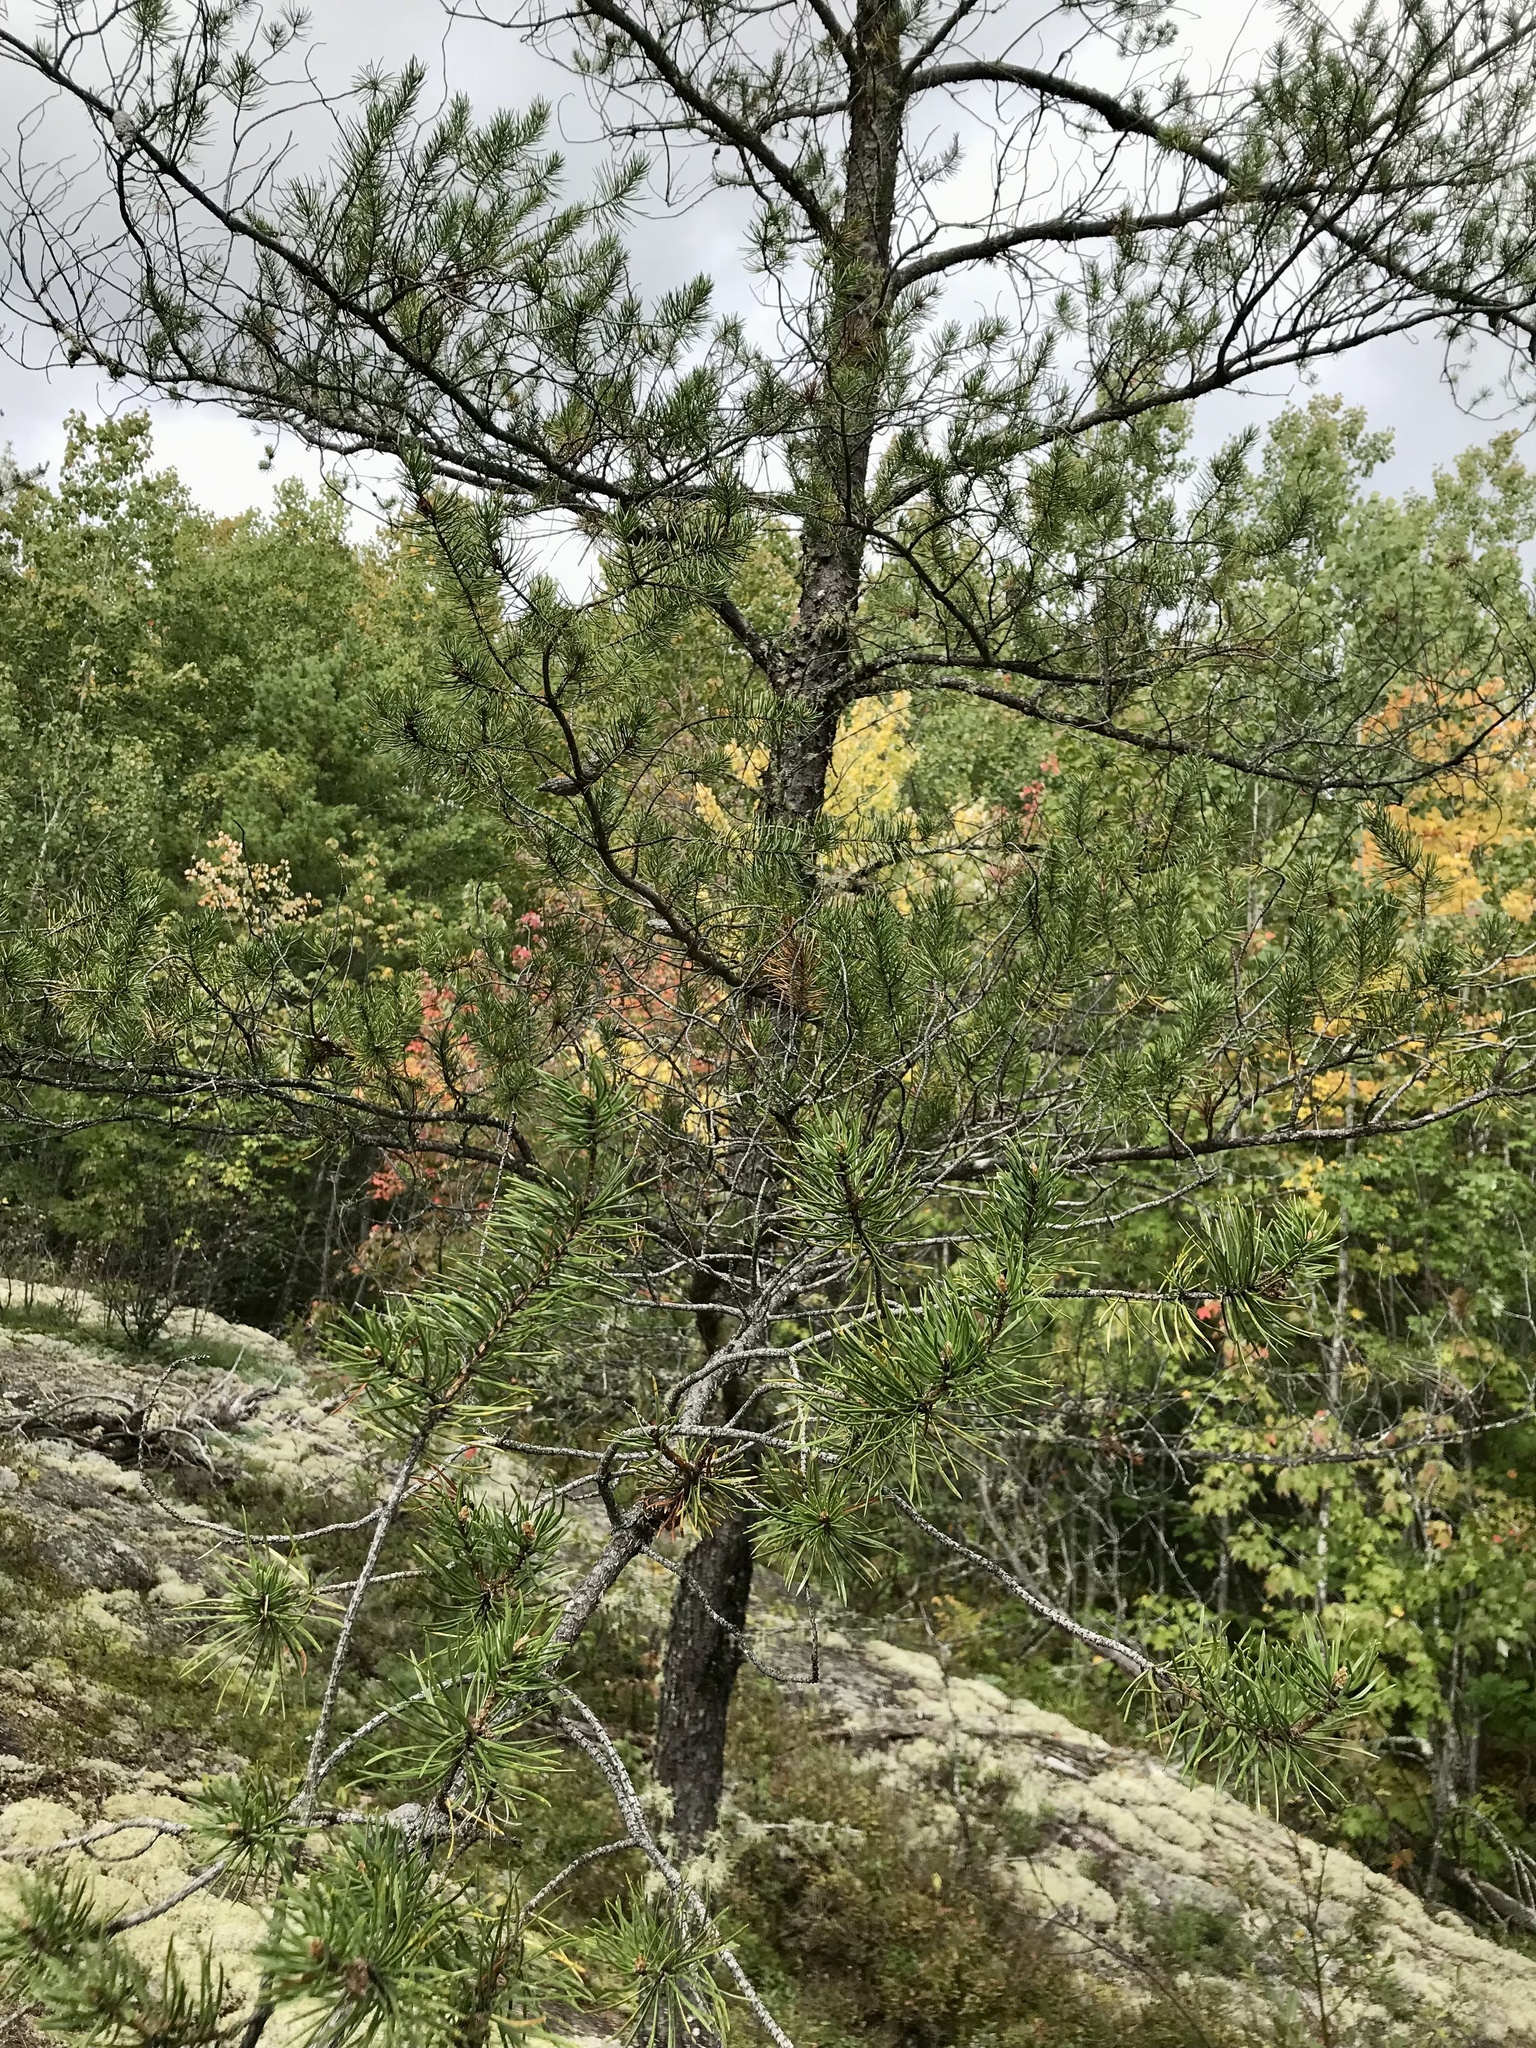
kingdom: Plantae
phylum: Tracheophyta
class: Pinopsida
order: Pinales
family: Pinaceae
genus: Pinus
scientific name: Pinus banksiana
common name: Jack pine
